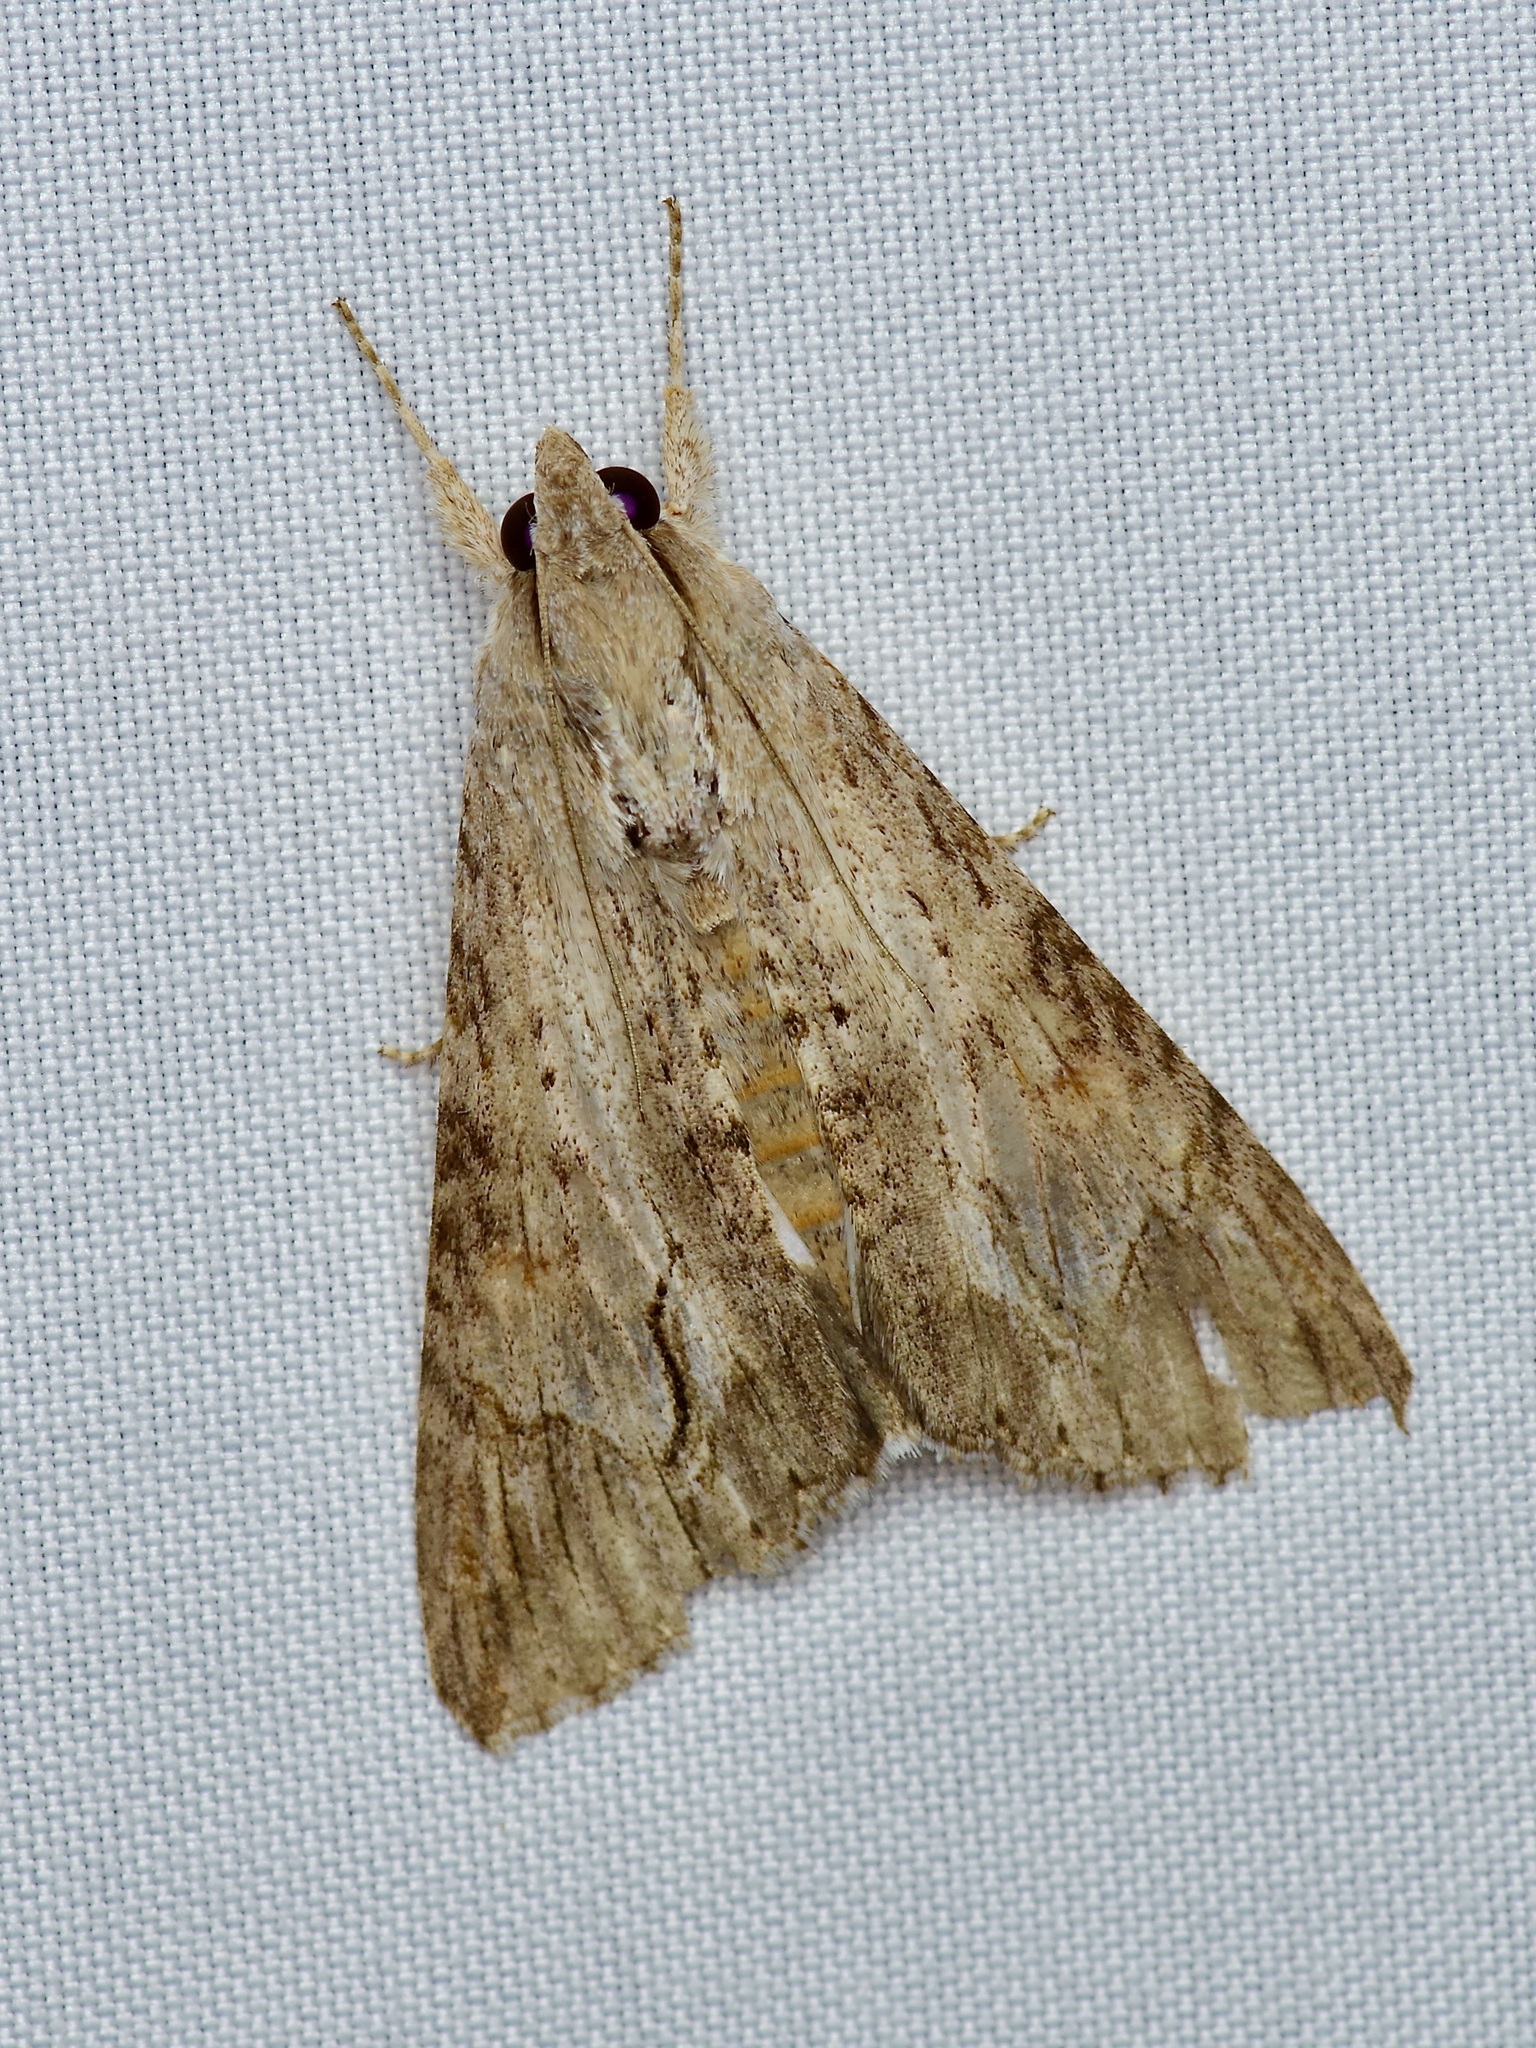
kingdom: Animalia
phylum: Arthropoda
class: Insecta
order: Lepidoptera
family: Erebidae
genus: Melipotis
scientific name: Melipotis acontioides
